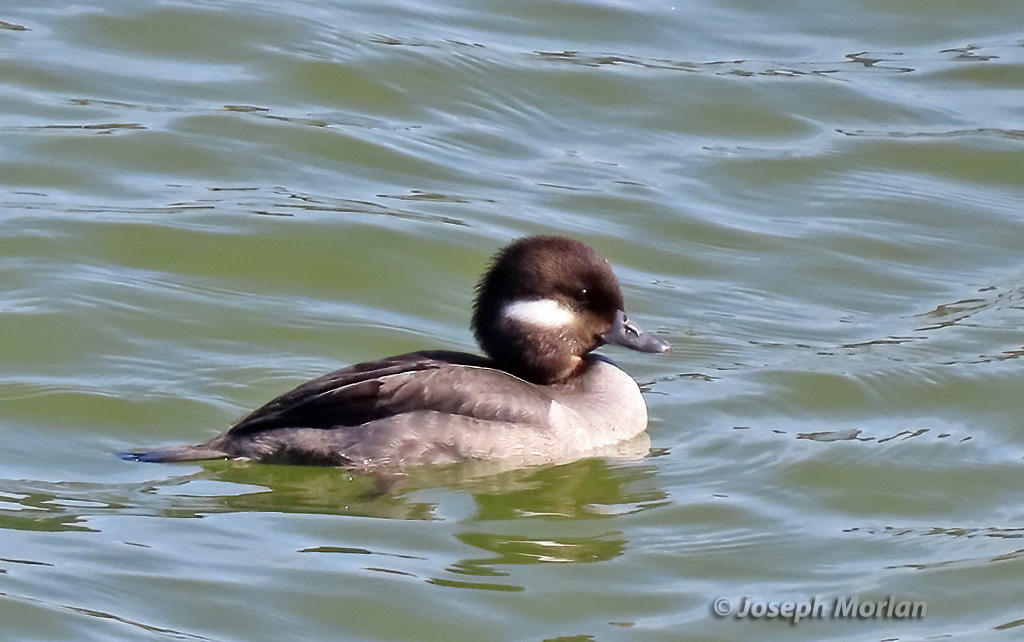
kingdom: Animalia
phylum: Chordata
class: Aves
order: Anseriformes
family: Anatidae
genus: Bucephala
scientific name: Bucephala albeola
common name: Bufflehead
